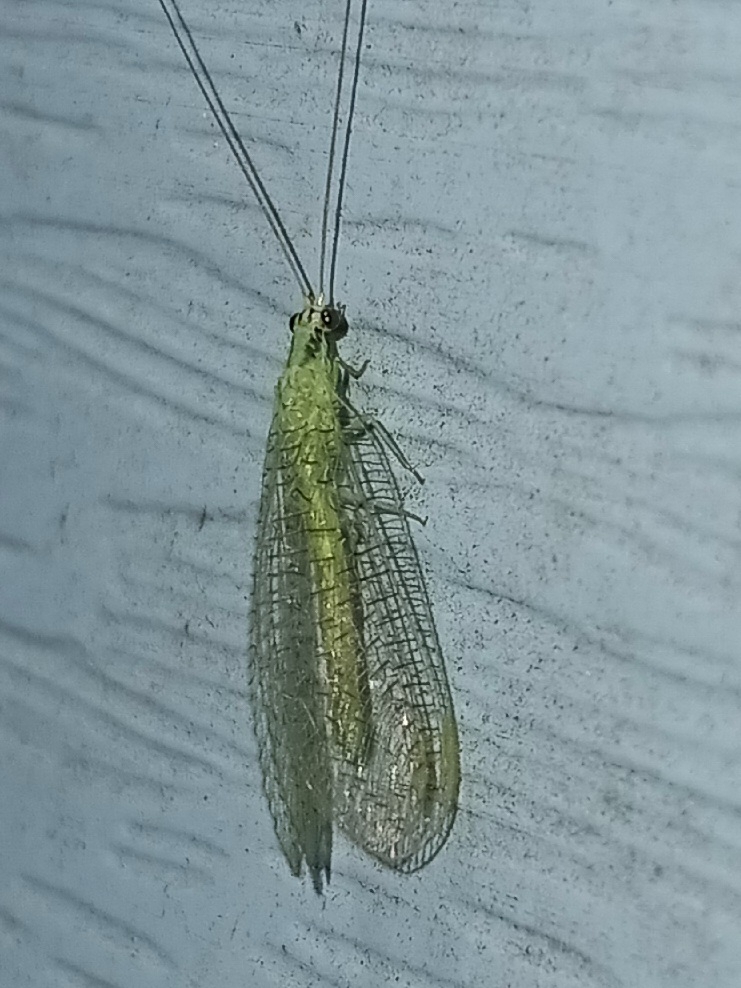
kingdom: Animalia
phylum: Arthropoda
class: Insecta
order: Neuroptera
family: Chrysopidae
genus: Chrysopa
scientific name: Chrysopa incompleta
